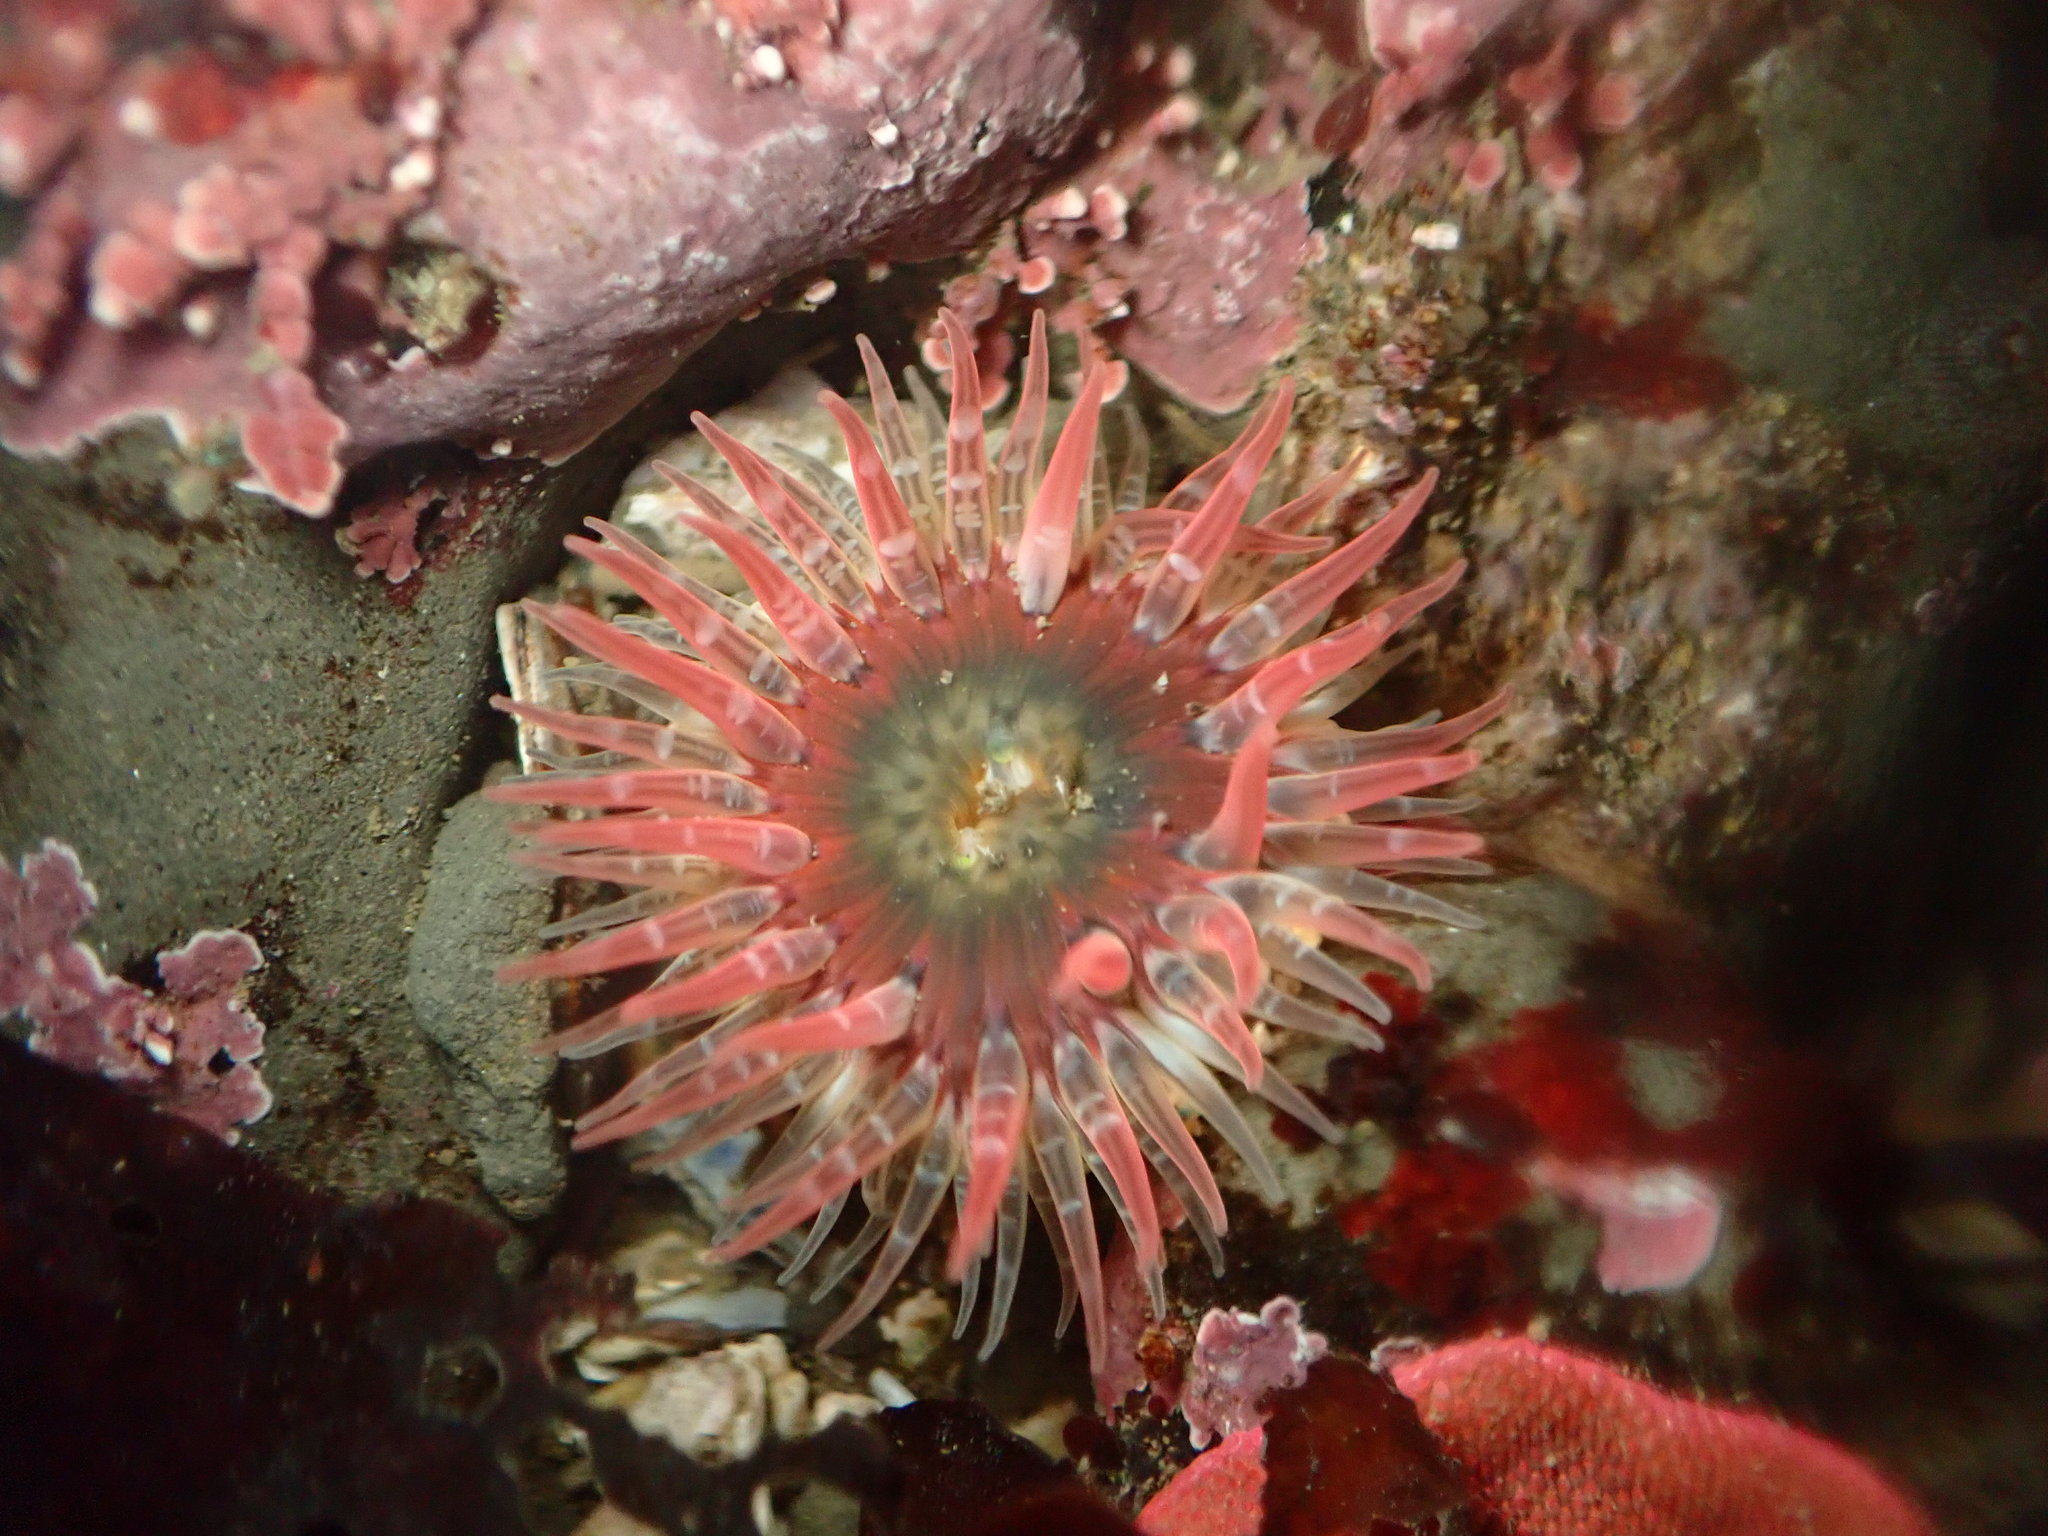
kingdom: Animalia
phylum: Cnidaria
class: Anthozoa
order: Actiniaria
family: Actiniidae
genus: Anthopleura
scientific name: Anthopleura artemisia
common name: Buried sea anemone
